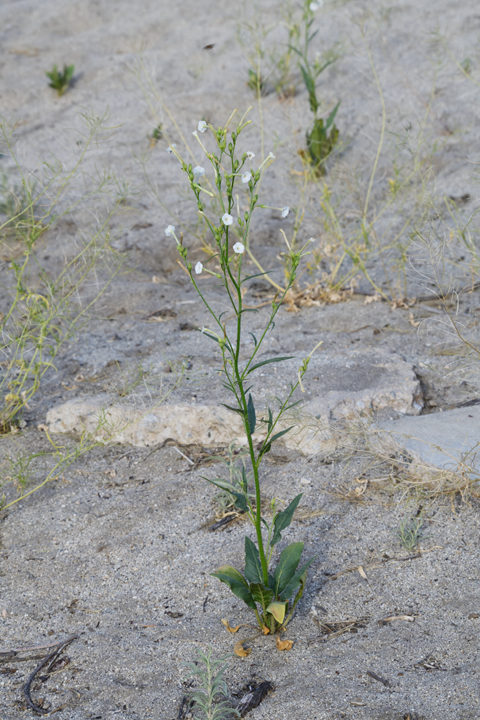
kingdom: Plantae
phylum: Tracheophyta
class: Magnoliopsida
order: Solanales
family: Solanaceae
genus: Nicotiana
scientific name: Nicotiana attenuata
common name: Coyote tobacco
